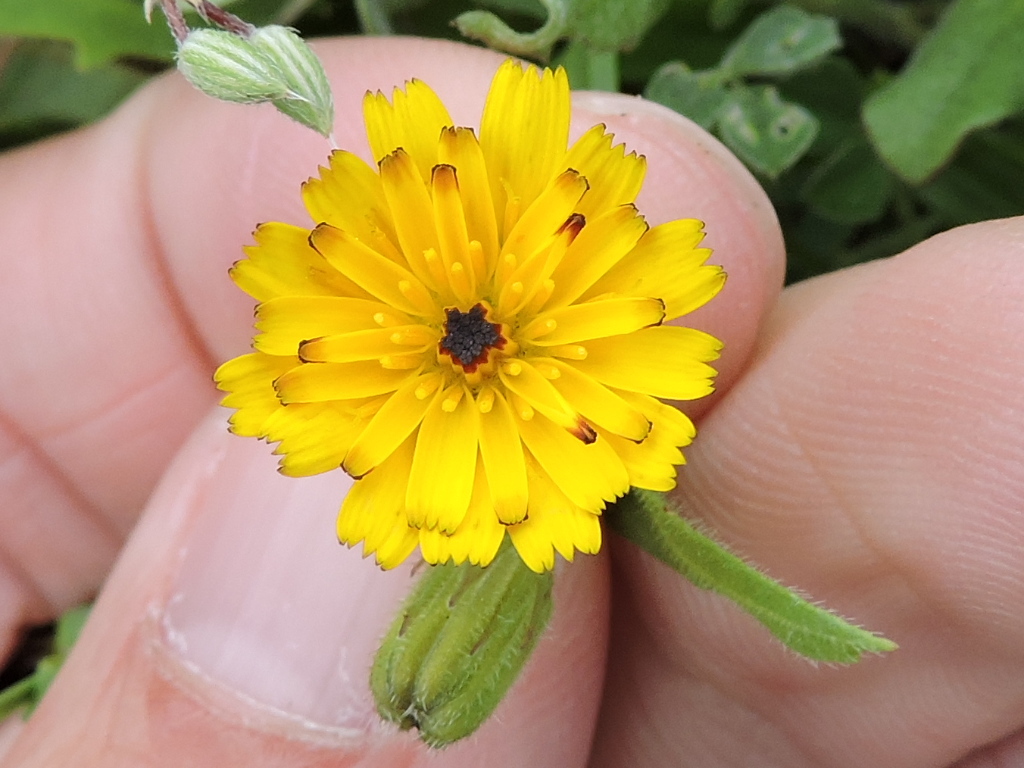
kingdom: Plantae
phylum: Tracheophyta
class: Magnoliopsida
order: Asterales
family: Asteraceae
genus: Hedypnois
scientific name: Hedypnois rhagadioloides
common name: Cretan weed
